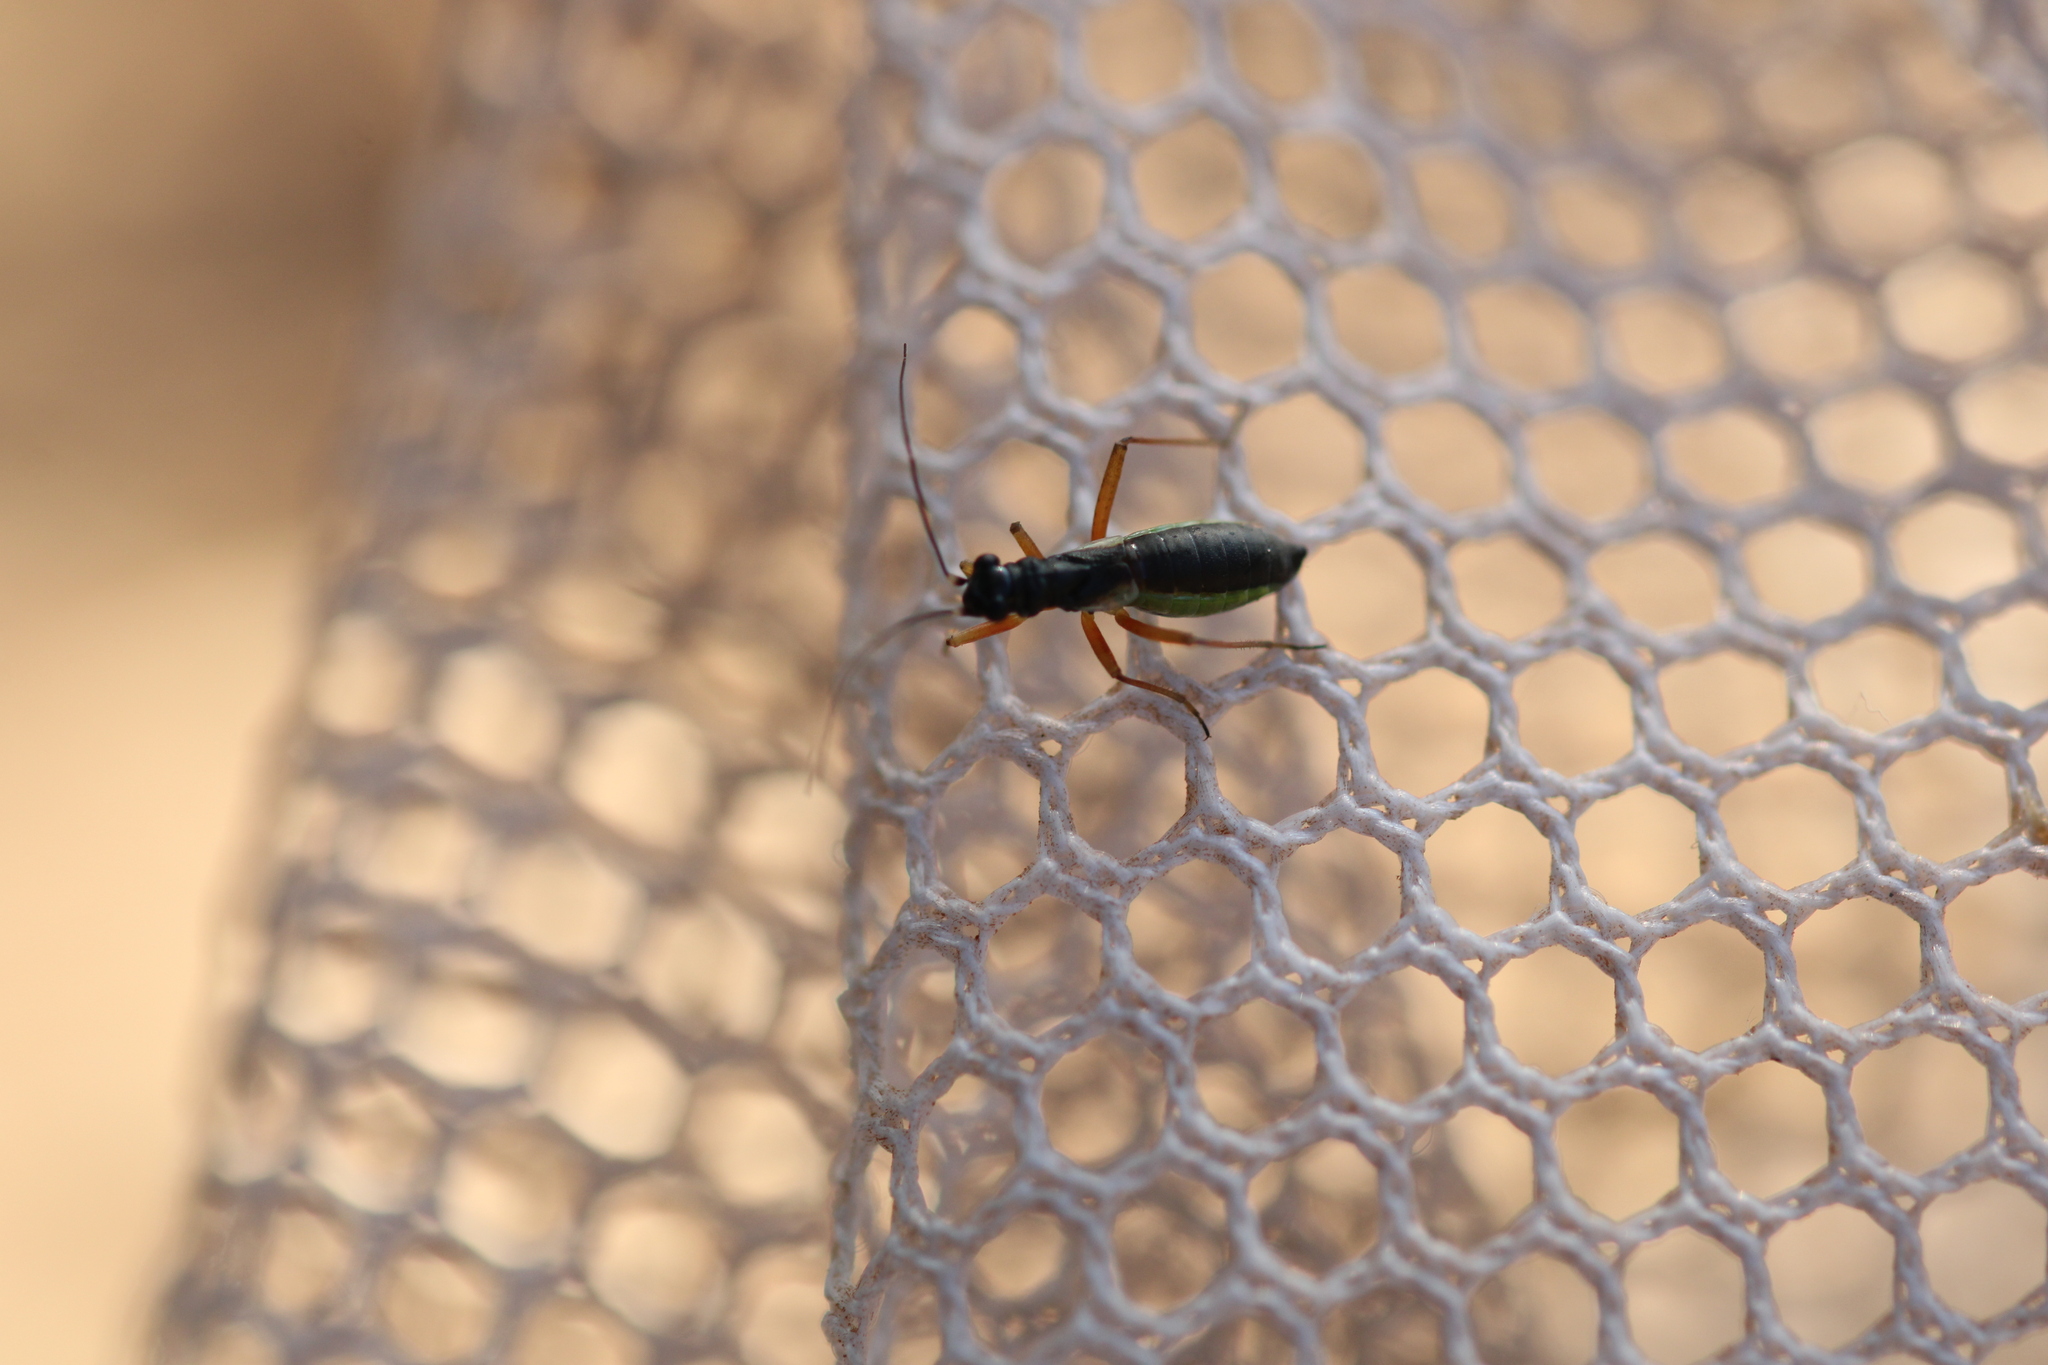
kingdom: Animalia
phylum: Arthropoda
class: Insecta
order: Hemiptera
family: Miridae
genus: Pithanus
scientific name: Pithanus maerkelii
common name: Plant bug
